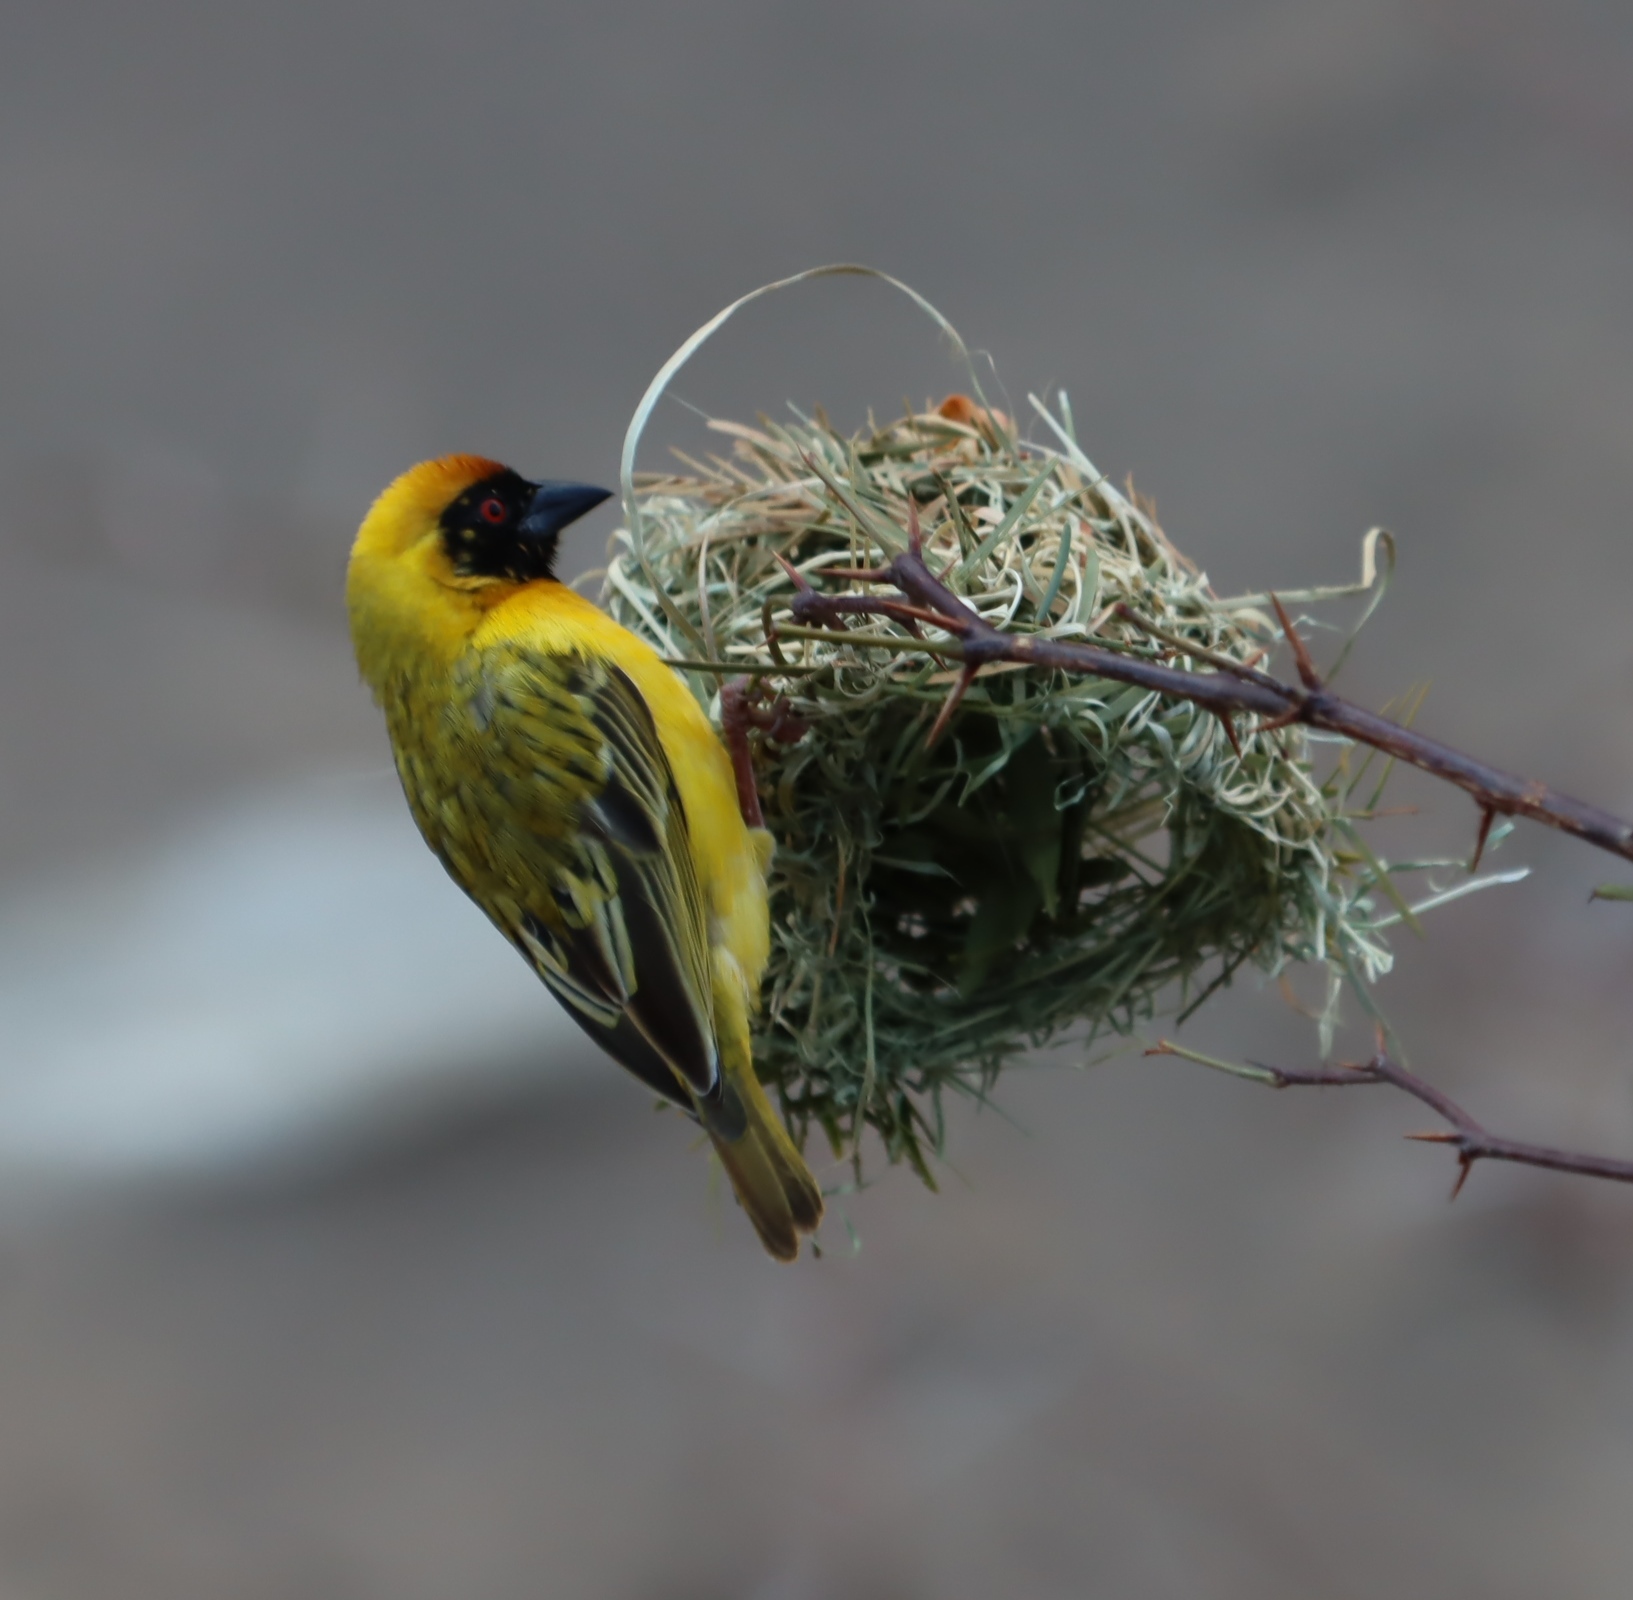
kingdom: Animalia
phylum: Chordata
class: Aves
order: Passeriformes
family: Ploceidae
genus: Ploceus
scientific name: Ploceus velatus
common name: Southern masked weaver
